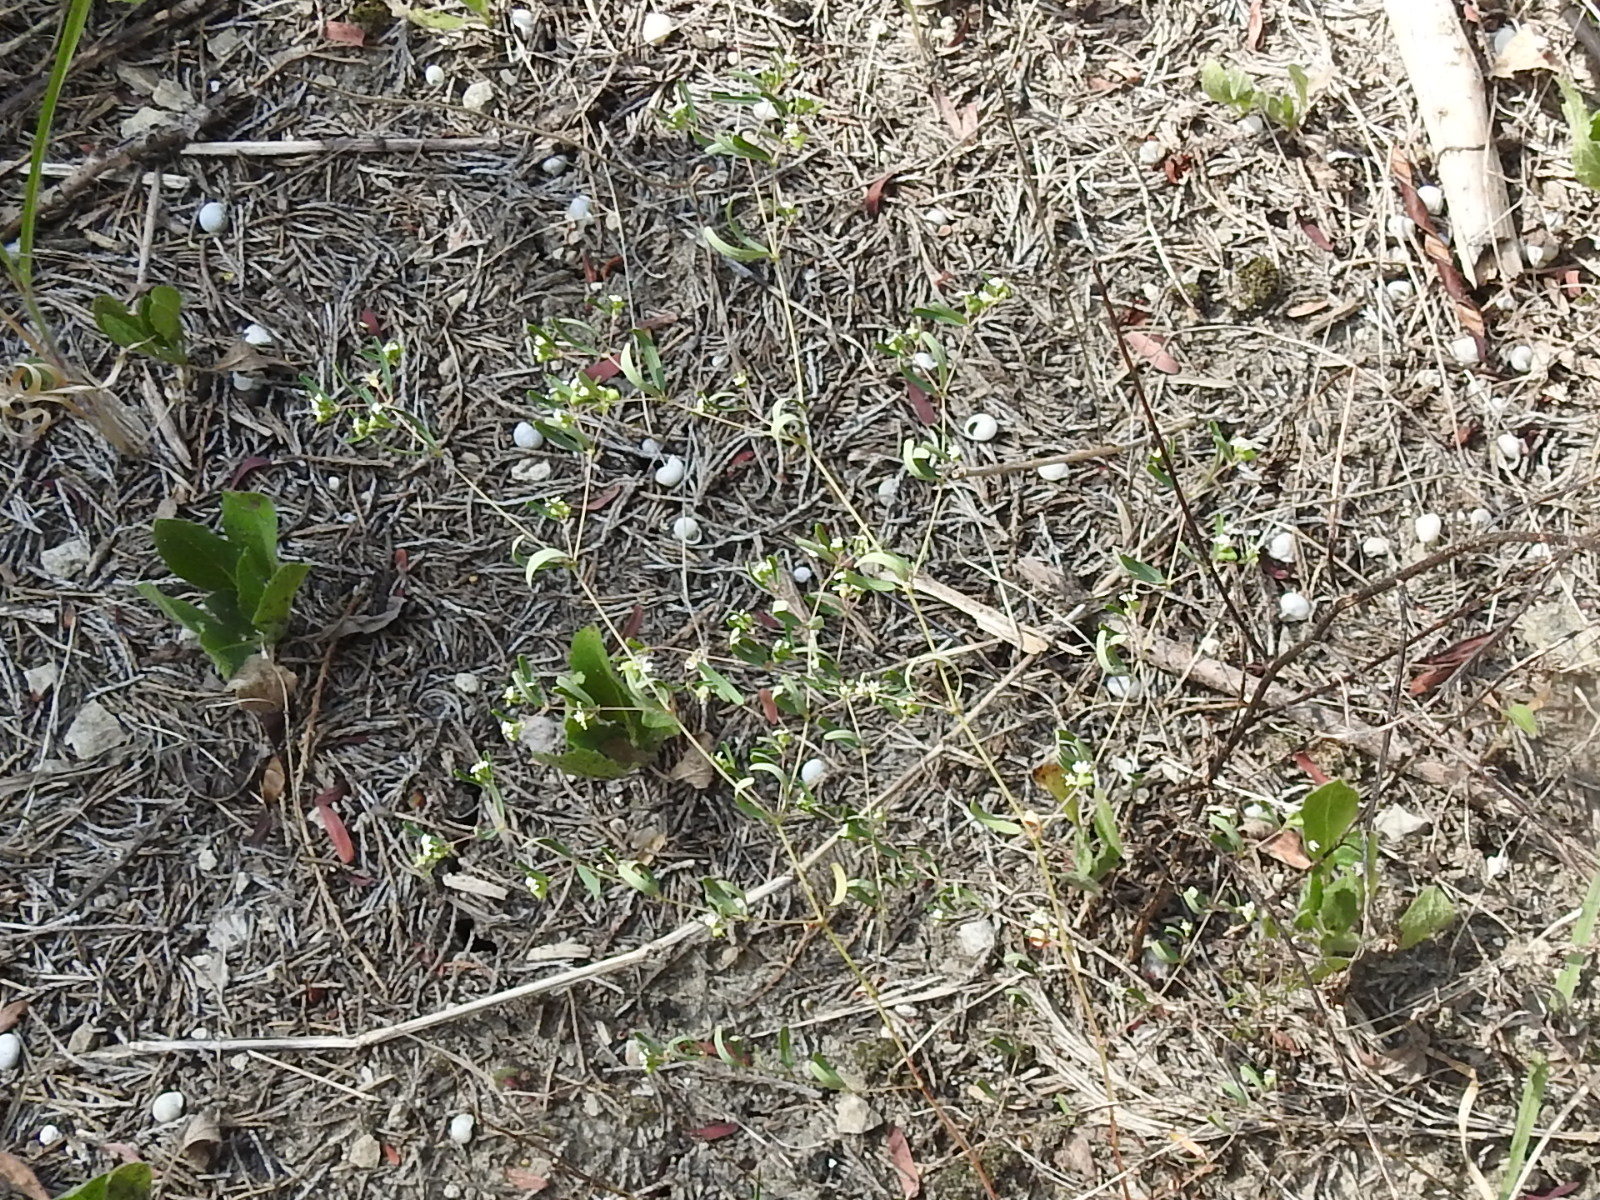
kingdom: Plantae
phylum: Tracheophyta
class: Magnoliopsida
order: Malpighiales
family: Euphorbiaceae
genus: Euphorbia
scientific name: Euphorbia missurica
